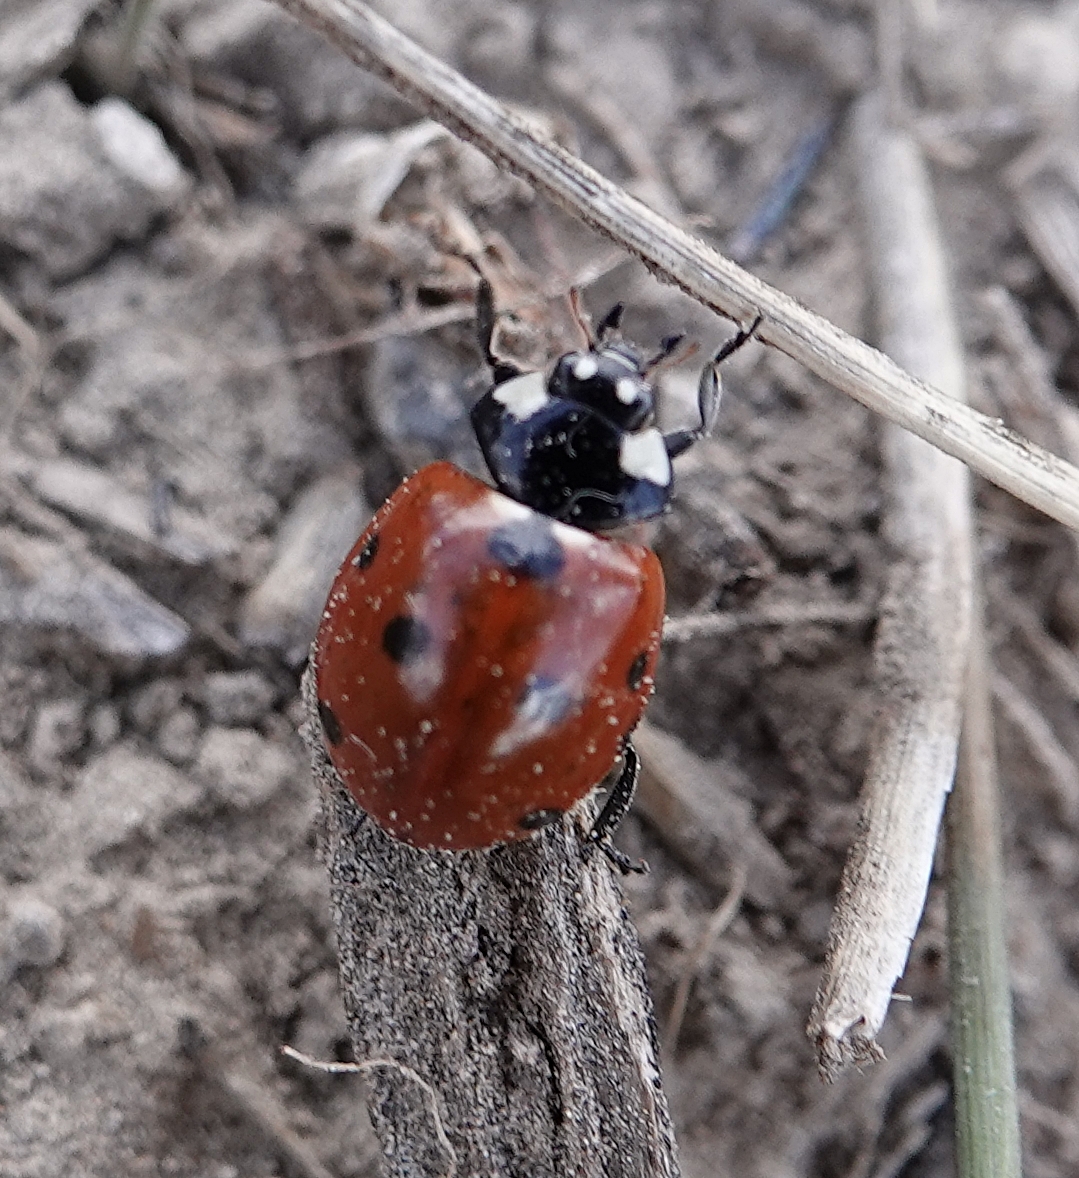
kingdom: Animalia
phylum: Arthropoda
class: Insecta
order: Coleoptera
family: Coccinellidae
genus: Coccinella
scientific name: Coccinella septempunctata
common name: Sevenspotted lady beetle
